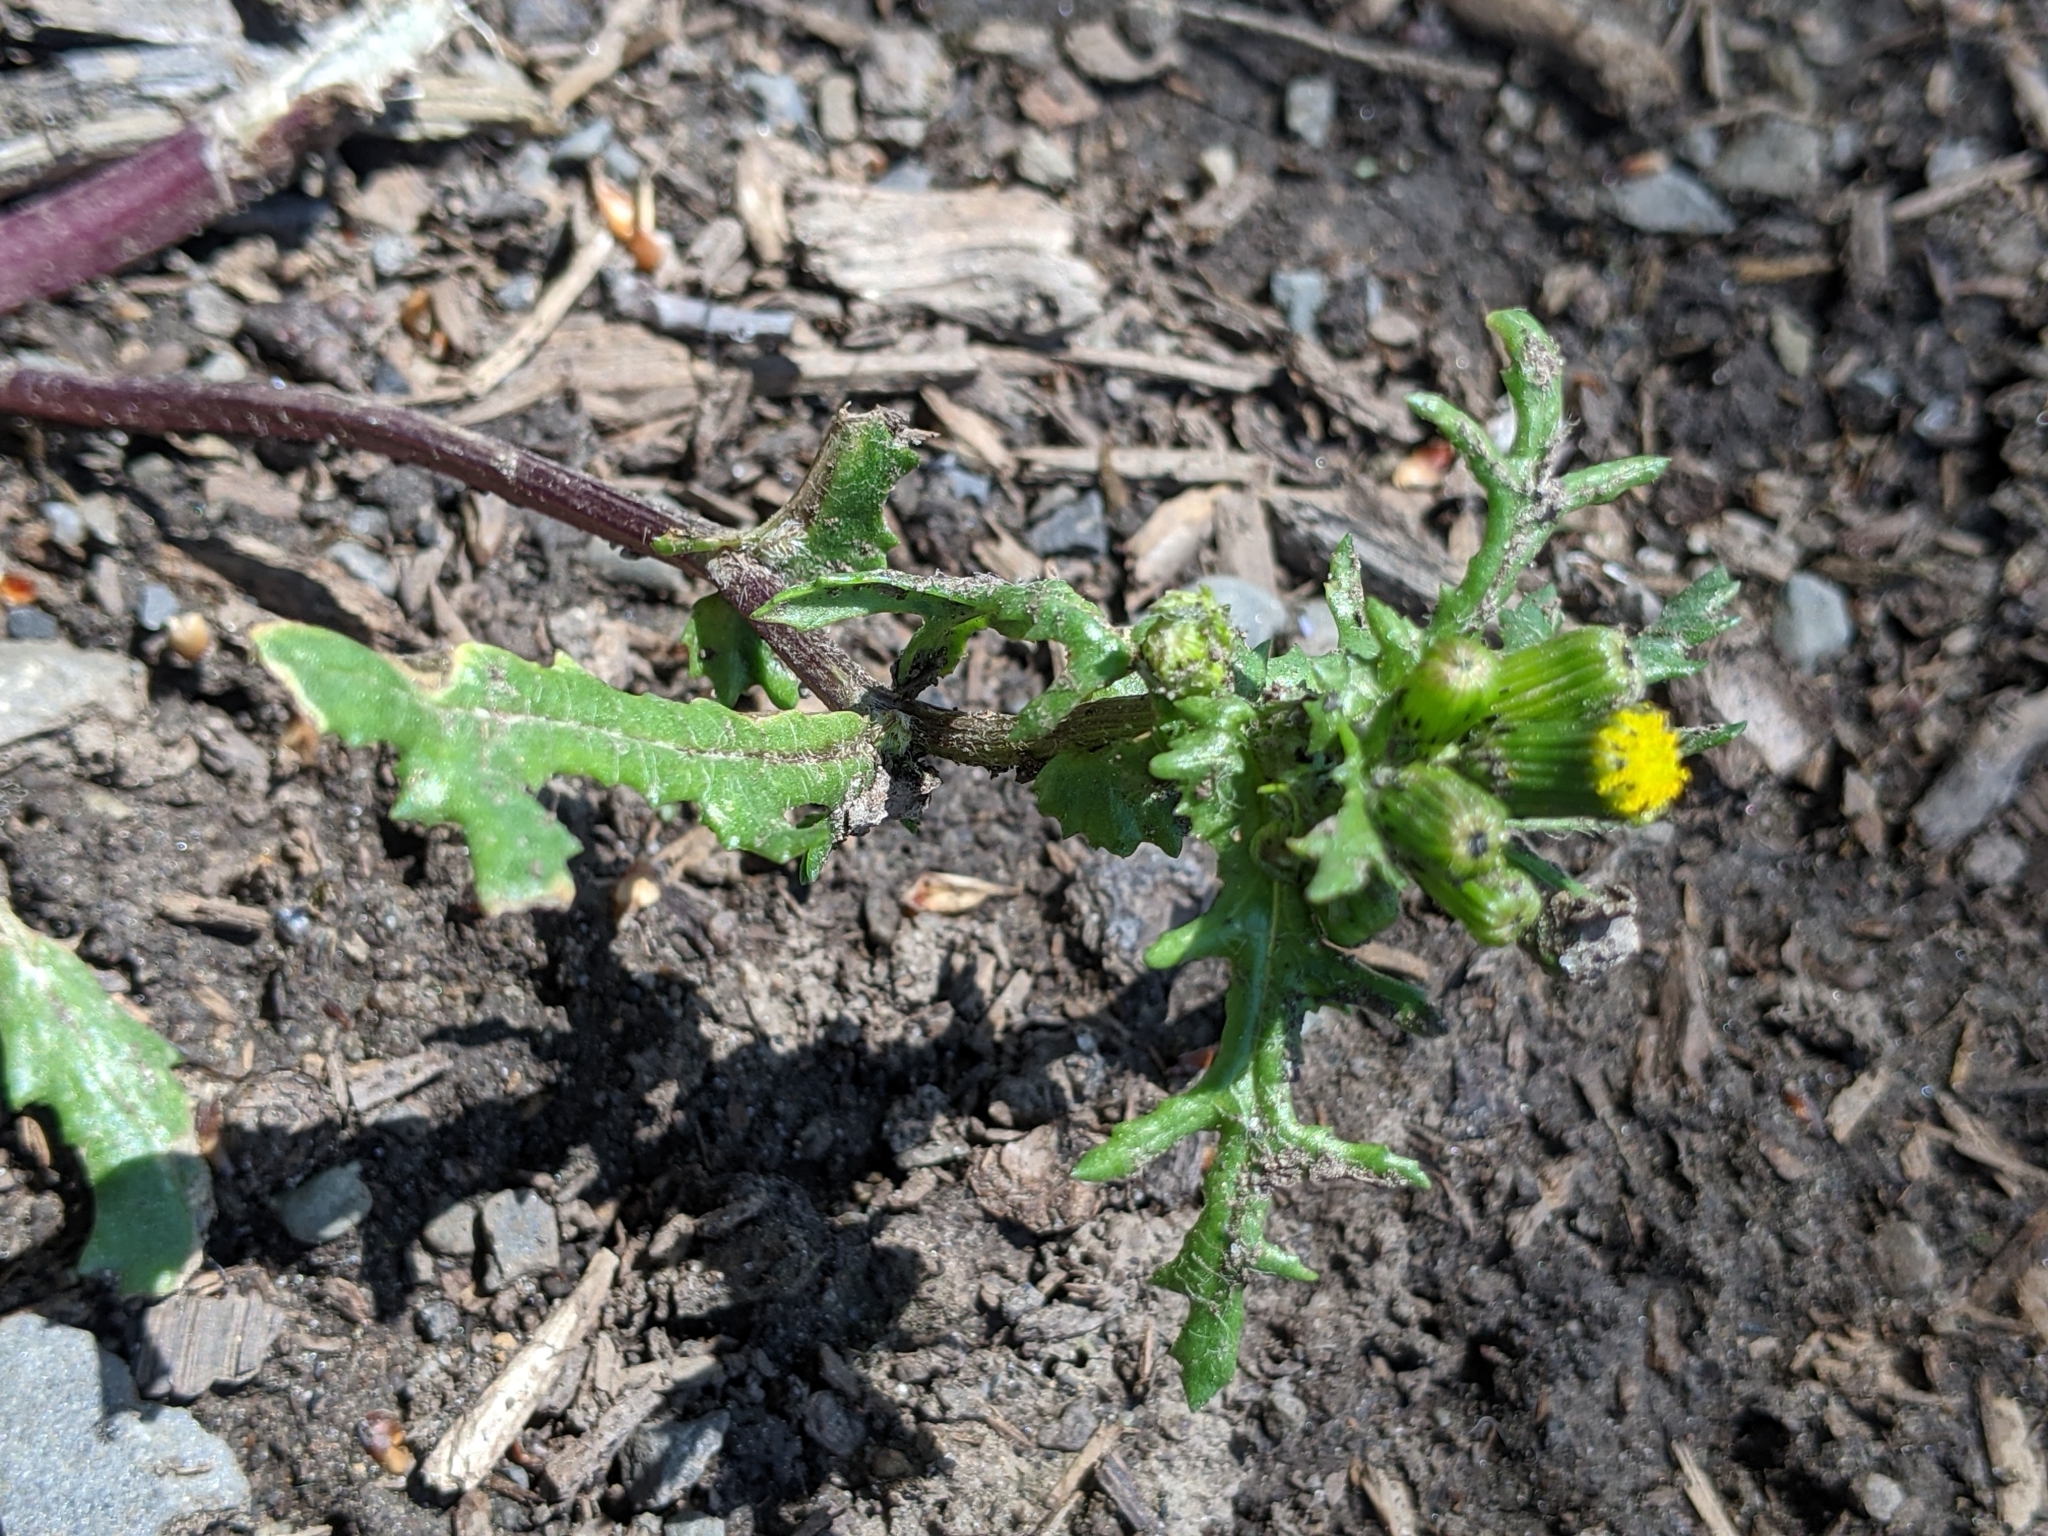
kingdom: Plantae
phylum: Tracheophyta
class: Magnoliopsida
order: Asterales
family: Asteraceae
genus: Senecio
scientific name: Senecio vulgaris
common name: Old-man-in-the-spring
